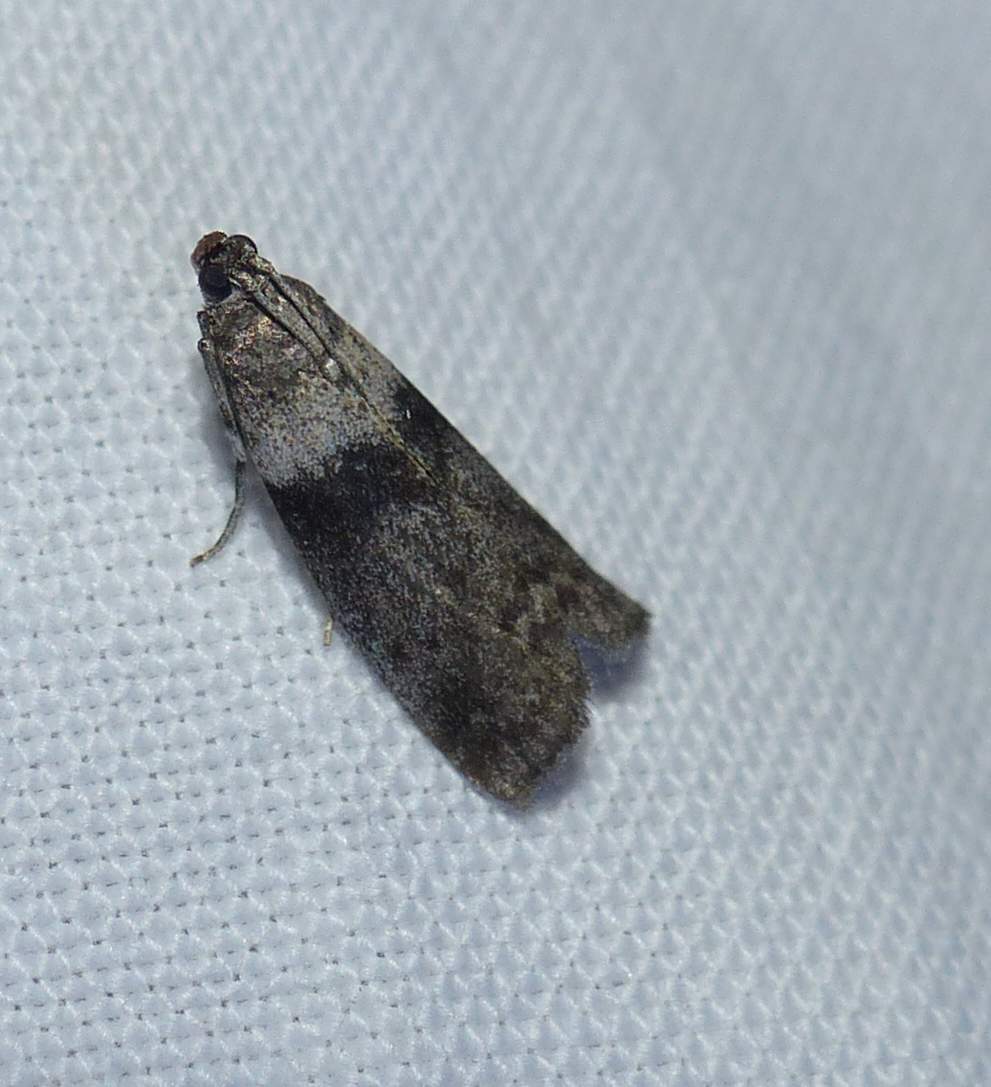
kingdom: Animalia
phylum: Arthropoda
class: Insecta
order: Lepidoptera
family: Pyralidae
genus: Meroptera
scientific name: Meroptera pravella
